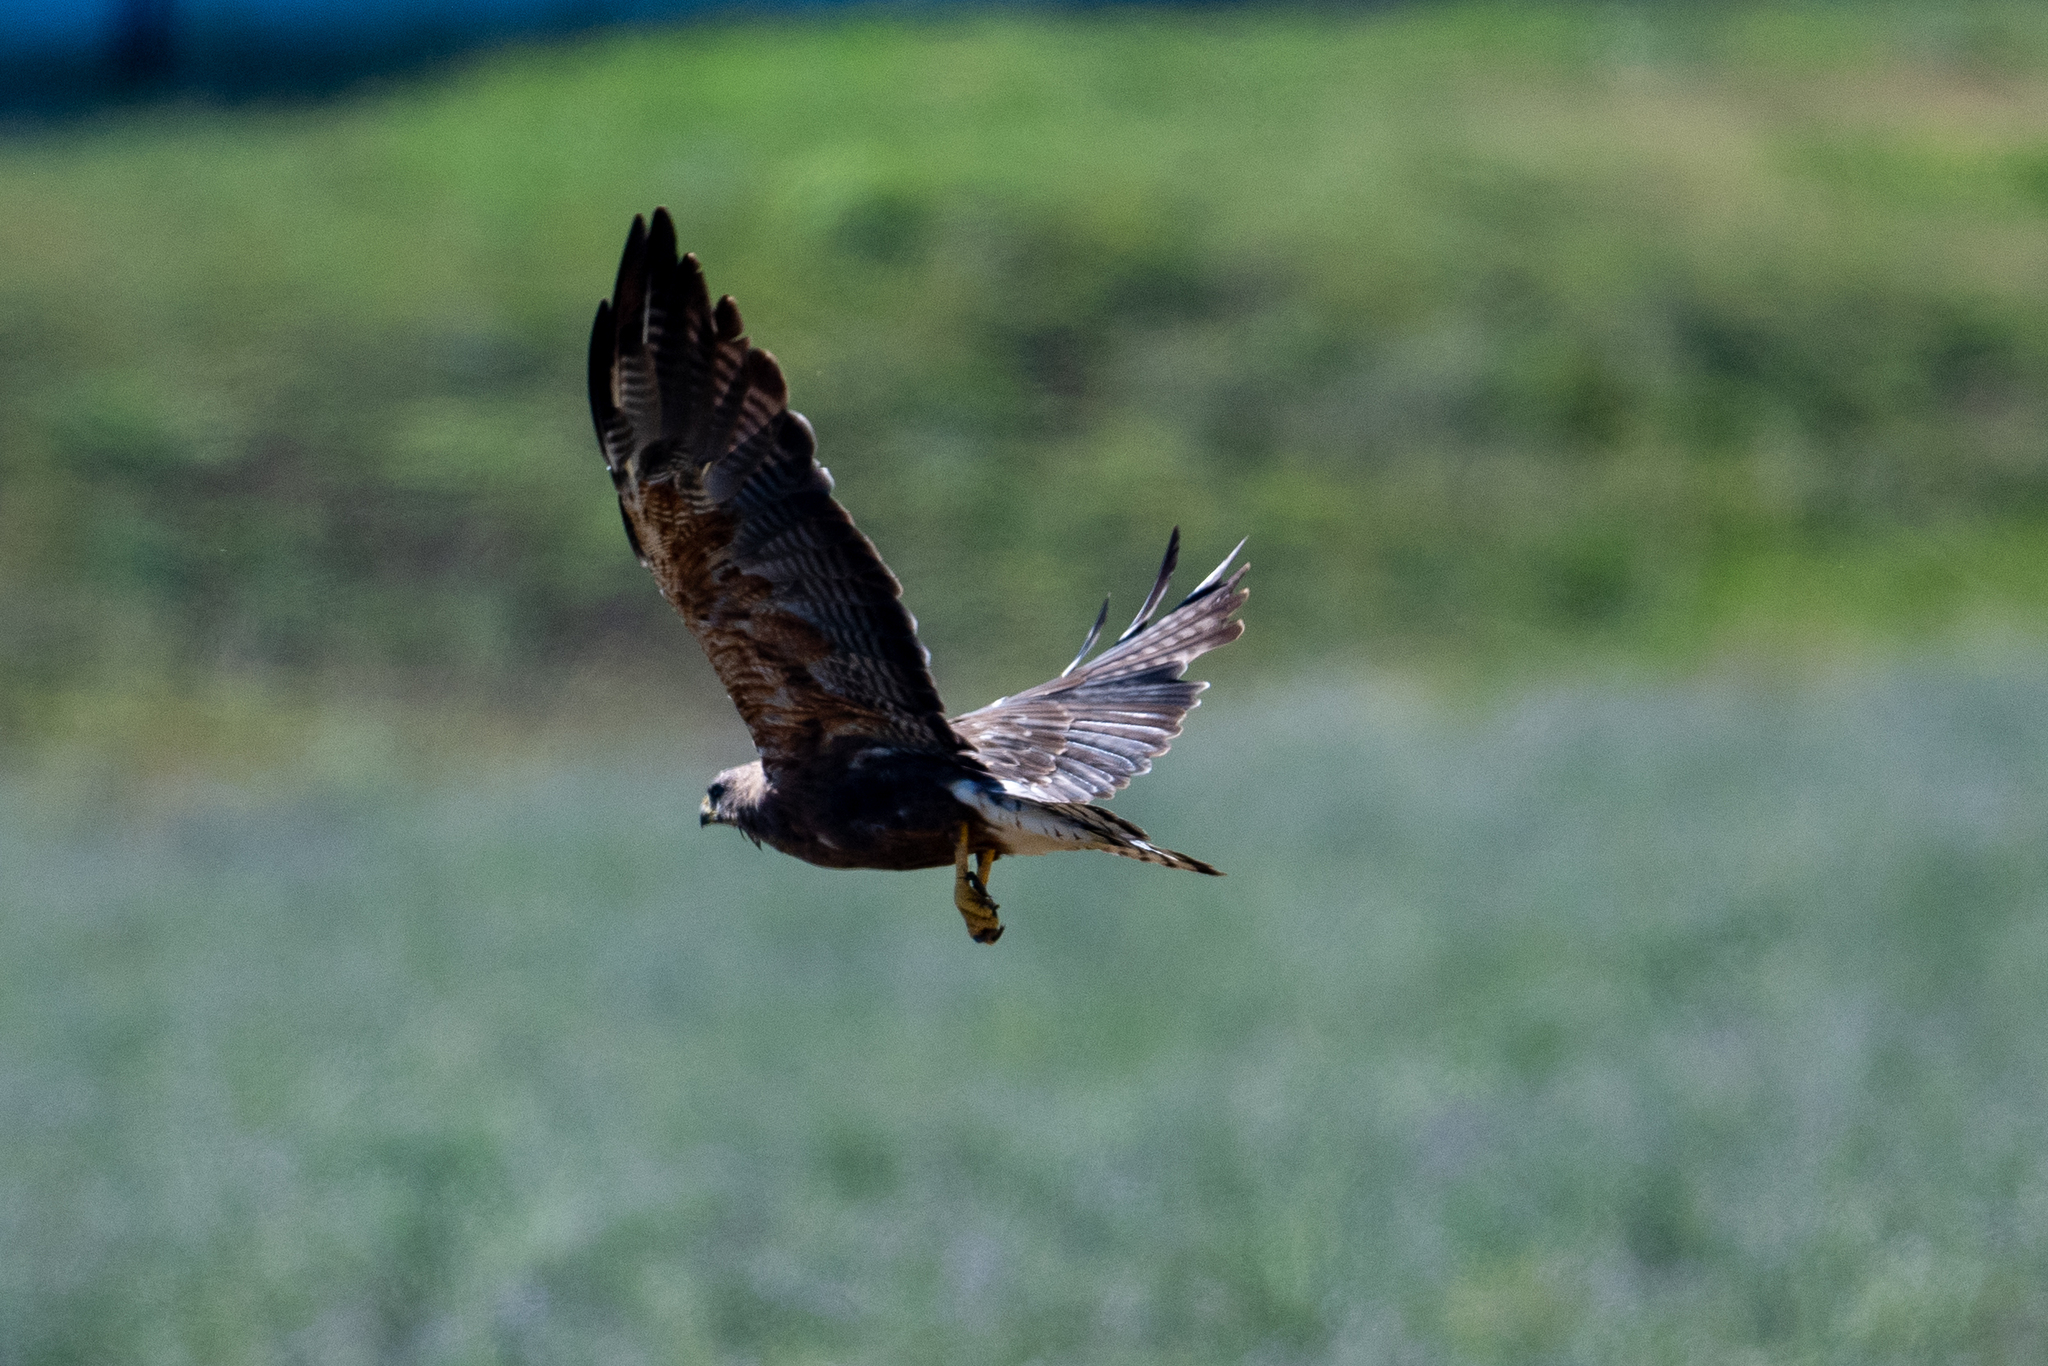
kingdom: Animalia
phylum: Chordata
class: Aves
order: Accipitriformes
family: Accipitridae
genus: Buteo
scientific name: Buteo swainsoni
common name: Swainson's hawk
